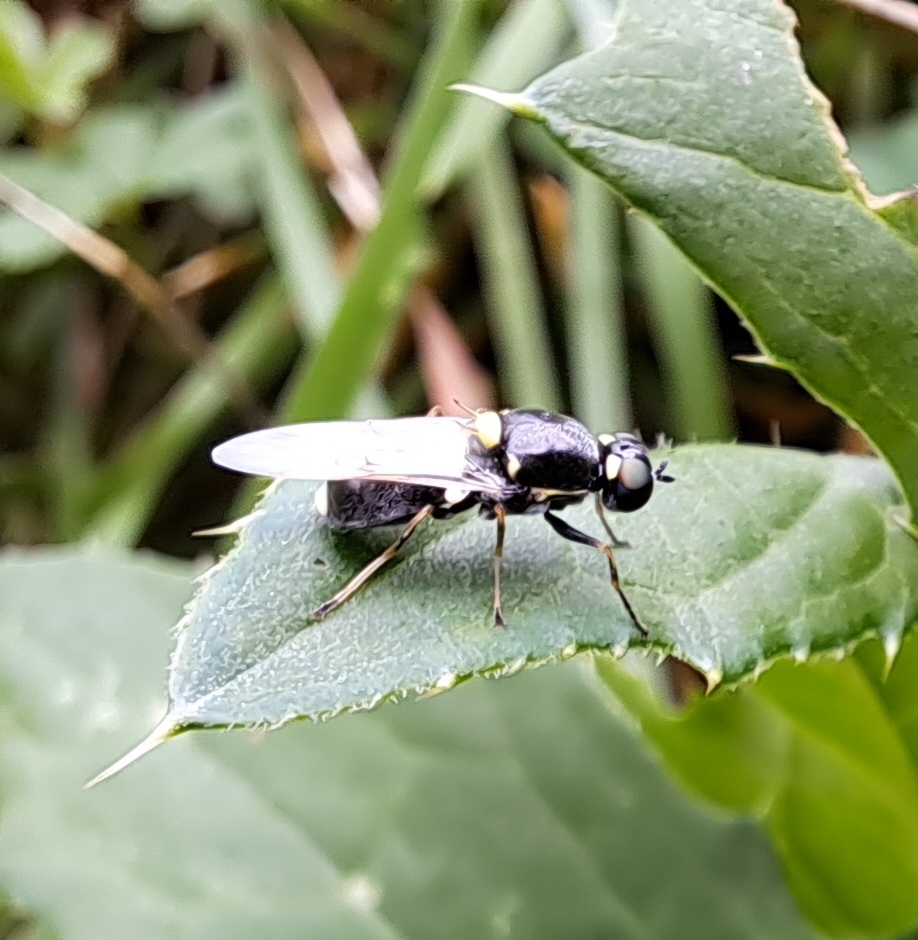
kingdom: Animalia
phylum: Arthropoda
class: Insecta
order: Diptera
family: Stratiomyidae
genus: Oxycera
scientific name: Oxycera leonina
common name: Twin-spotted major
